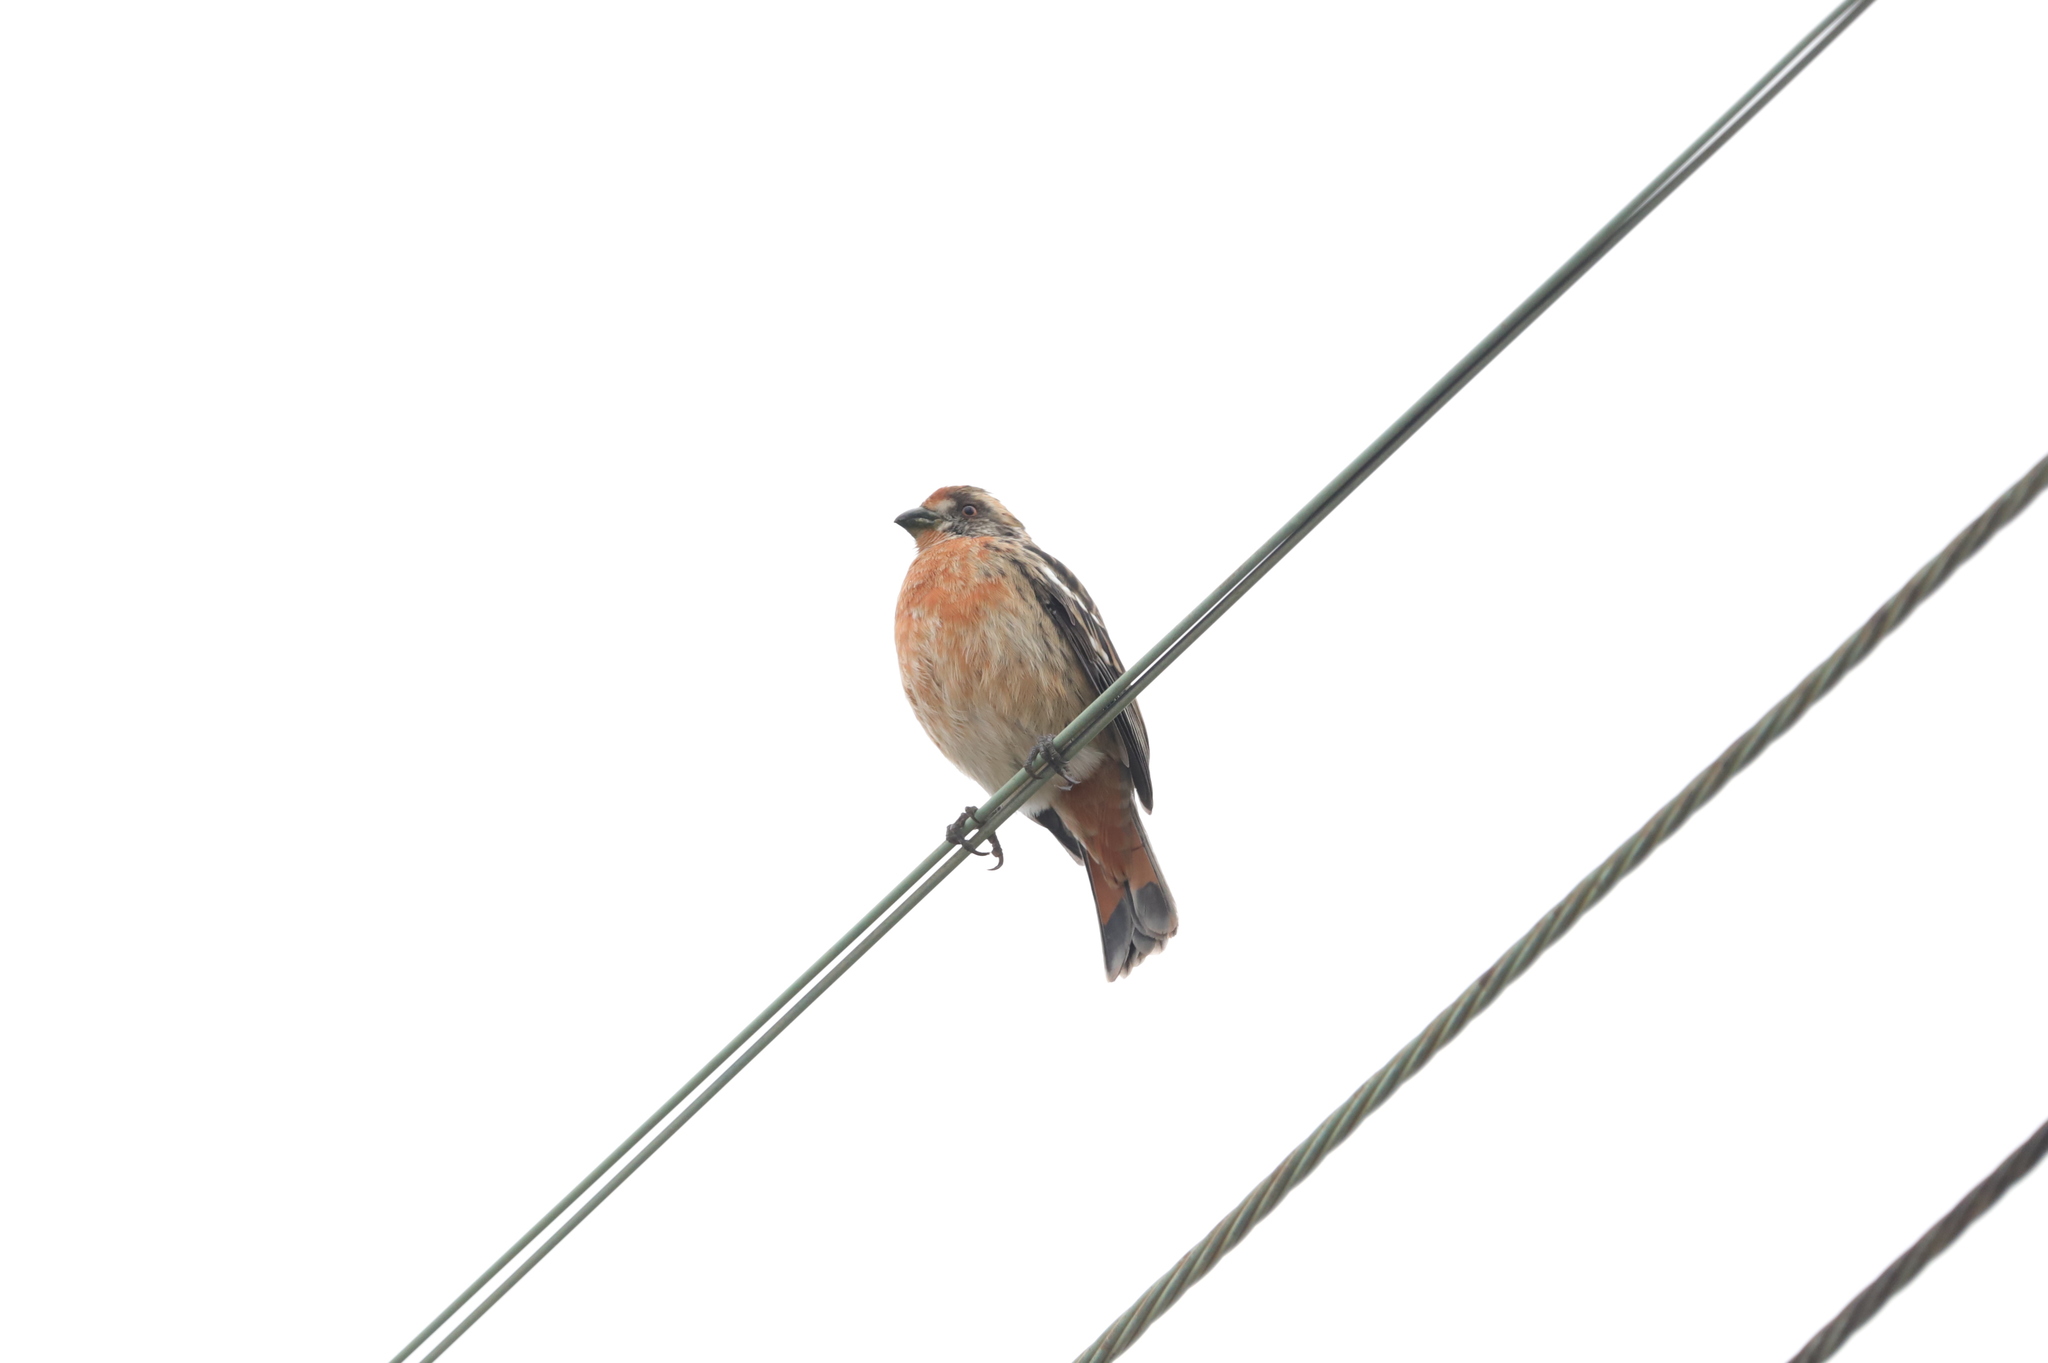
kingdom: Animalia
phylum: Chordata
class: Aves
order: Passeriformes
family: Cotingidae
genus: Phytotoma
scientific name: Phytotoma rara
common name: Rufous-tailed plantcutter
